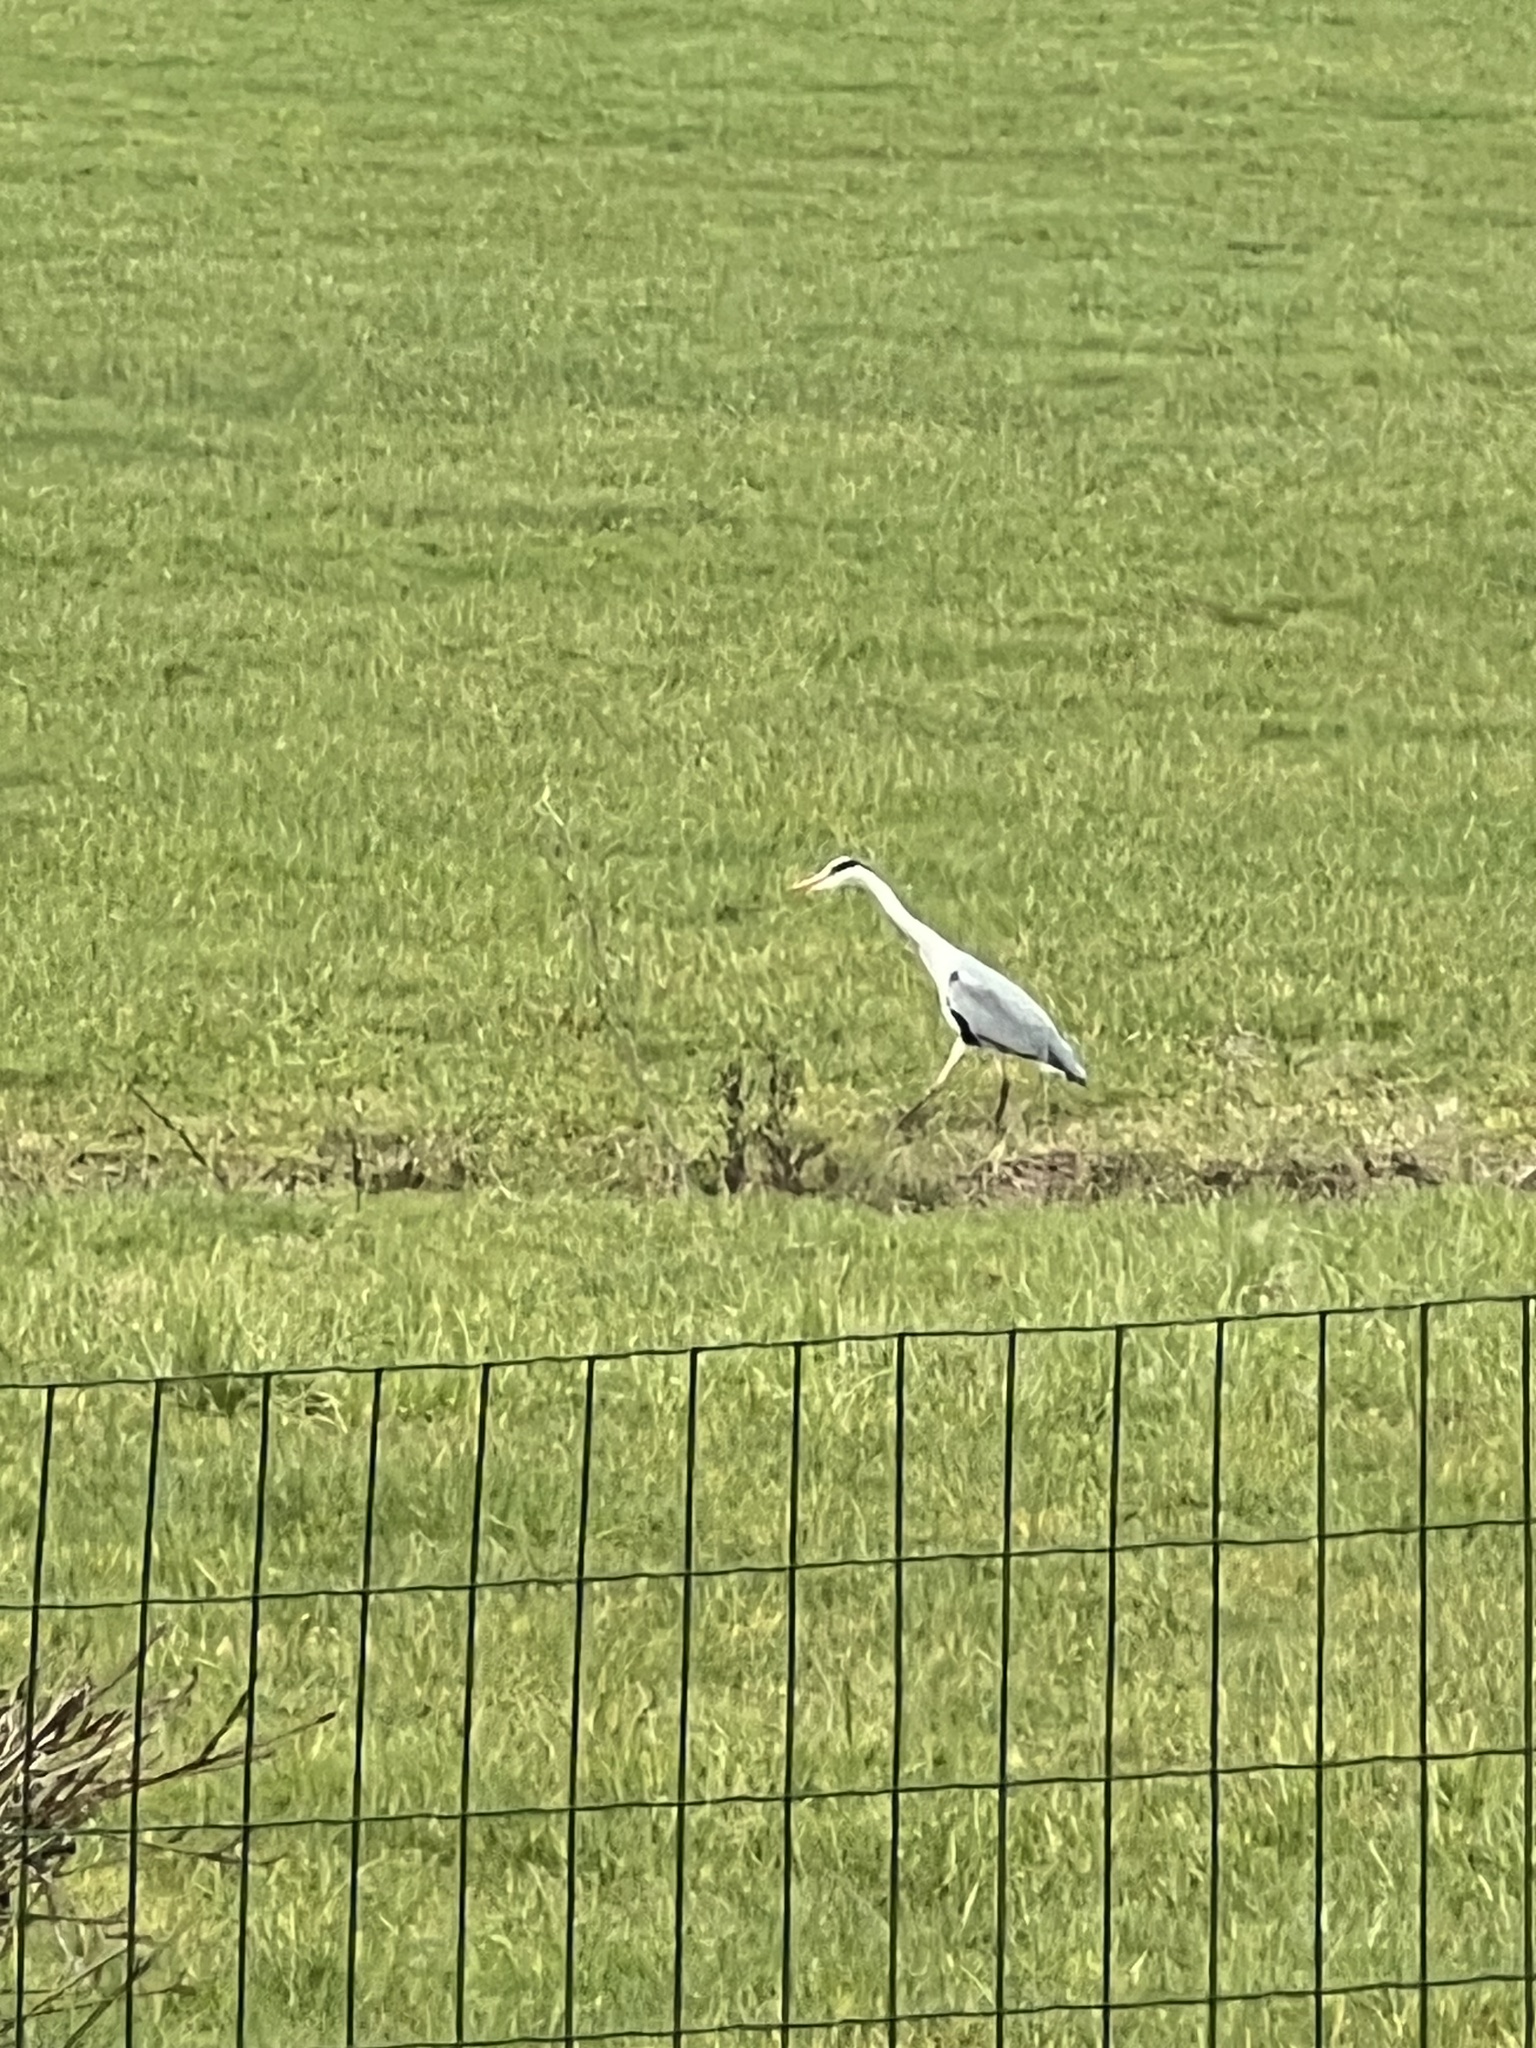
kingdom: Animalia
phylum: Chordata
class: Aves
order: Pelecaniformes
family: Ardeidae
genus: Ardea
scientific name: Ardea cinerea
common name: Grey heron
